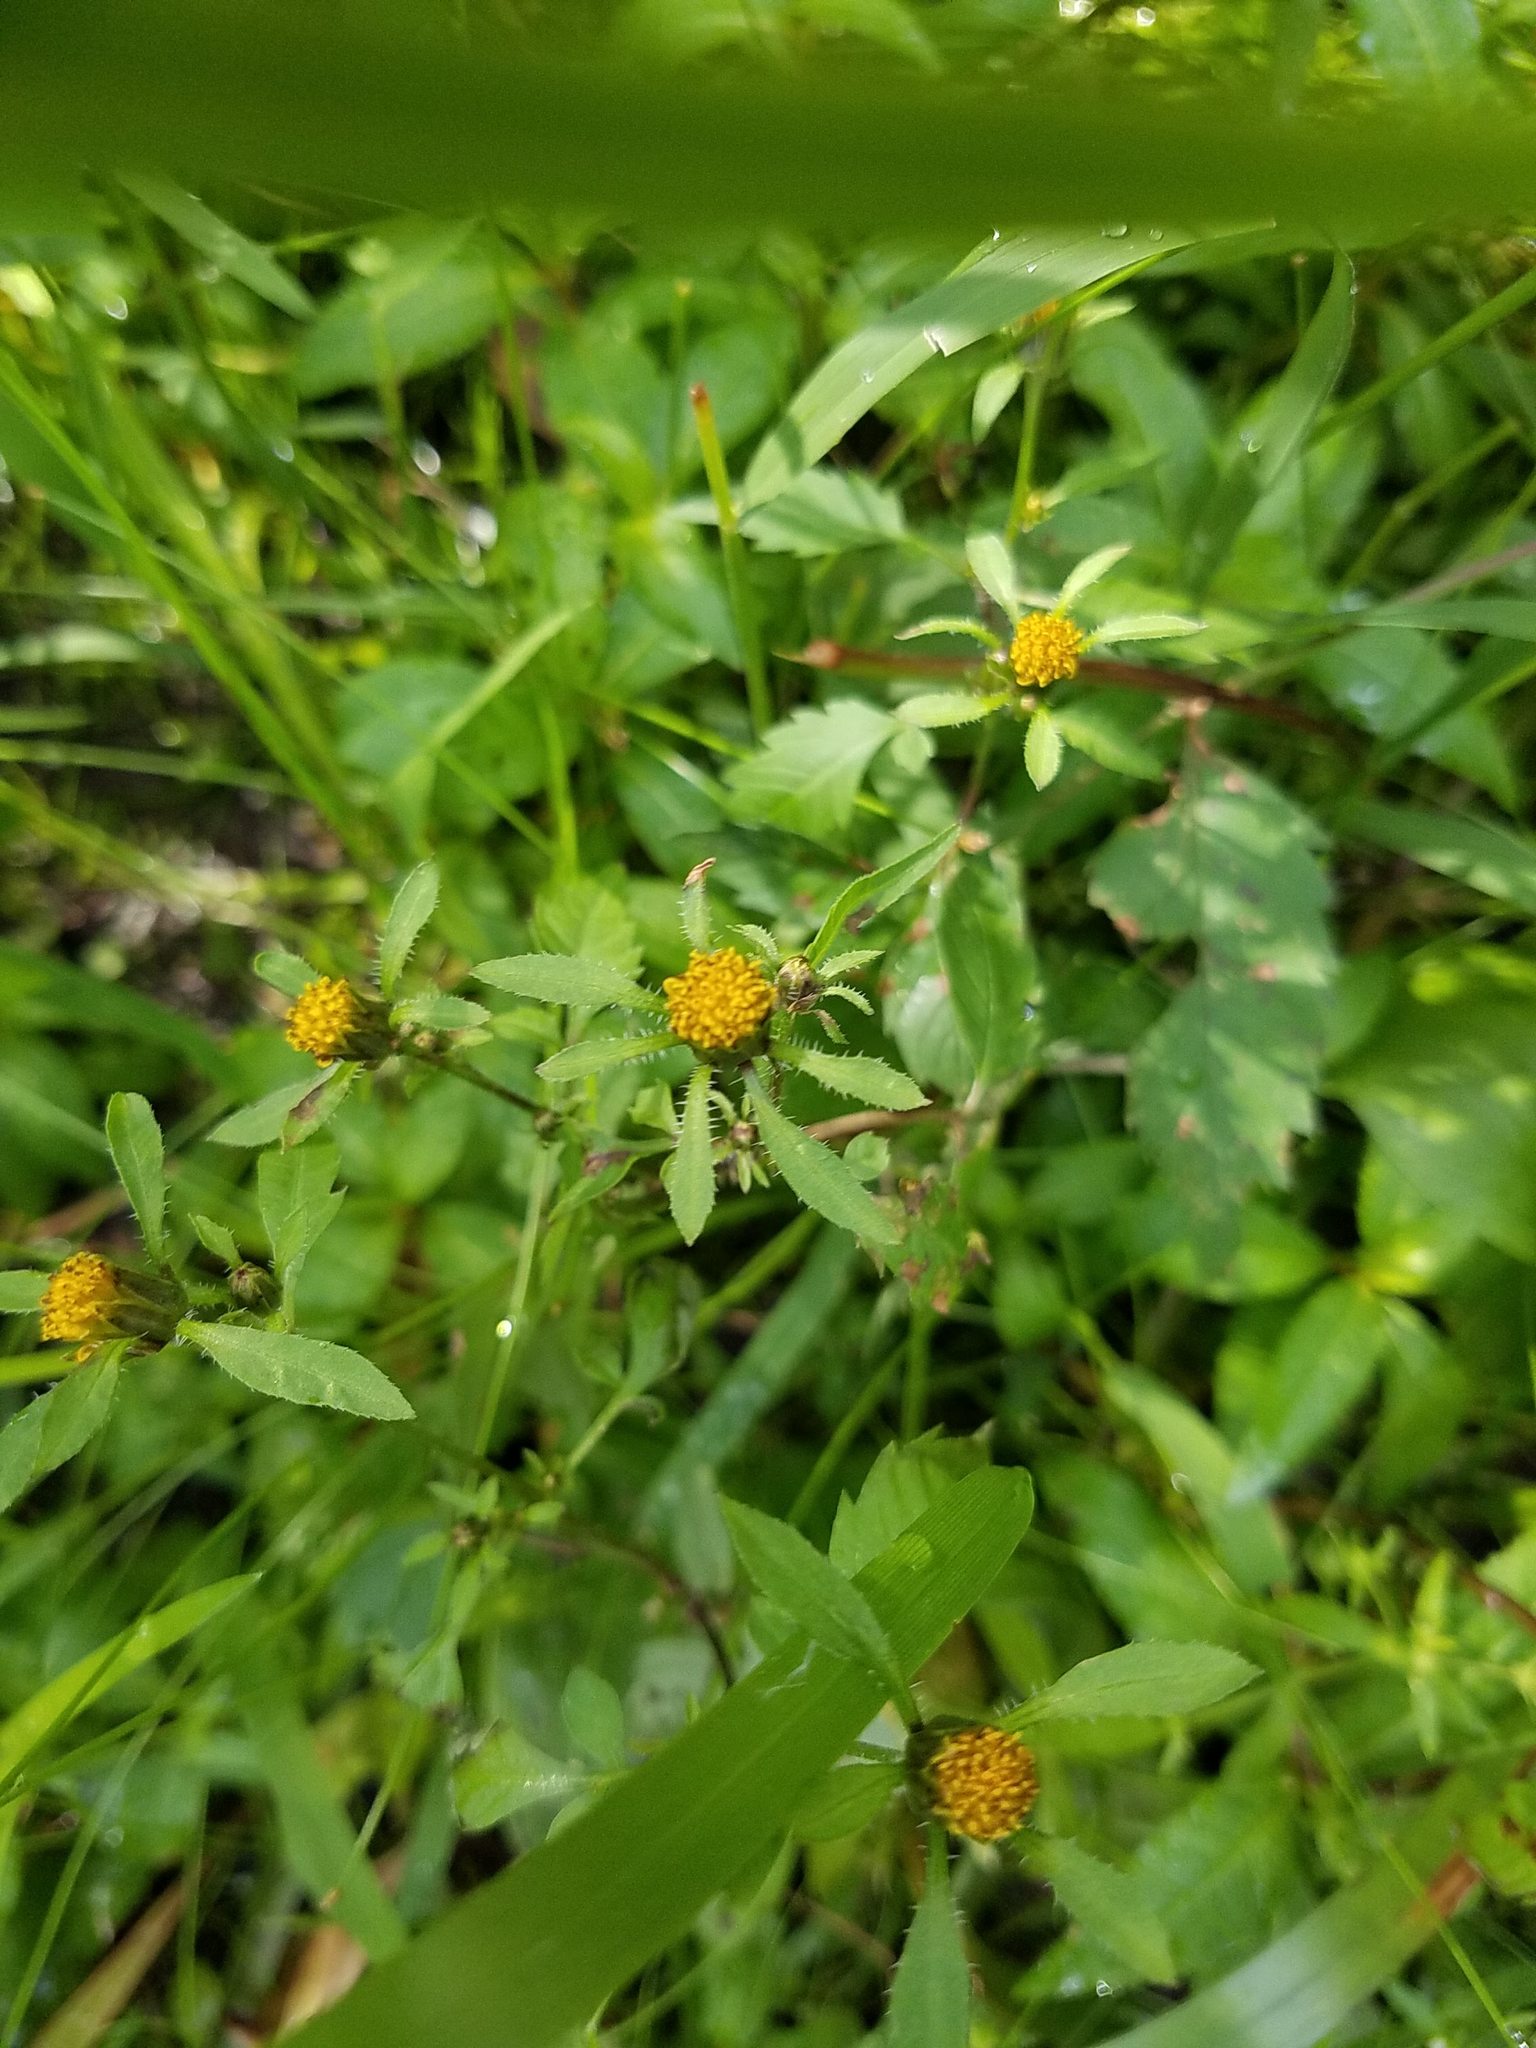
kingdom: Plantae
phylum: Tracheophyta
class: Magnoliopsida
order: Asterales
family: Asteraceae
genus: Bidens
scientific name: Bidens frondosa
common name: Beggarticks
